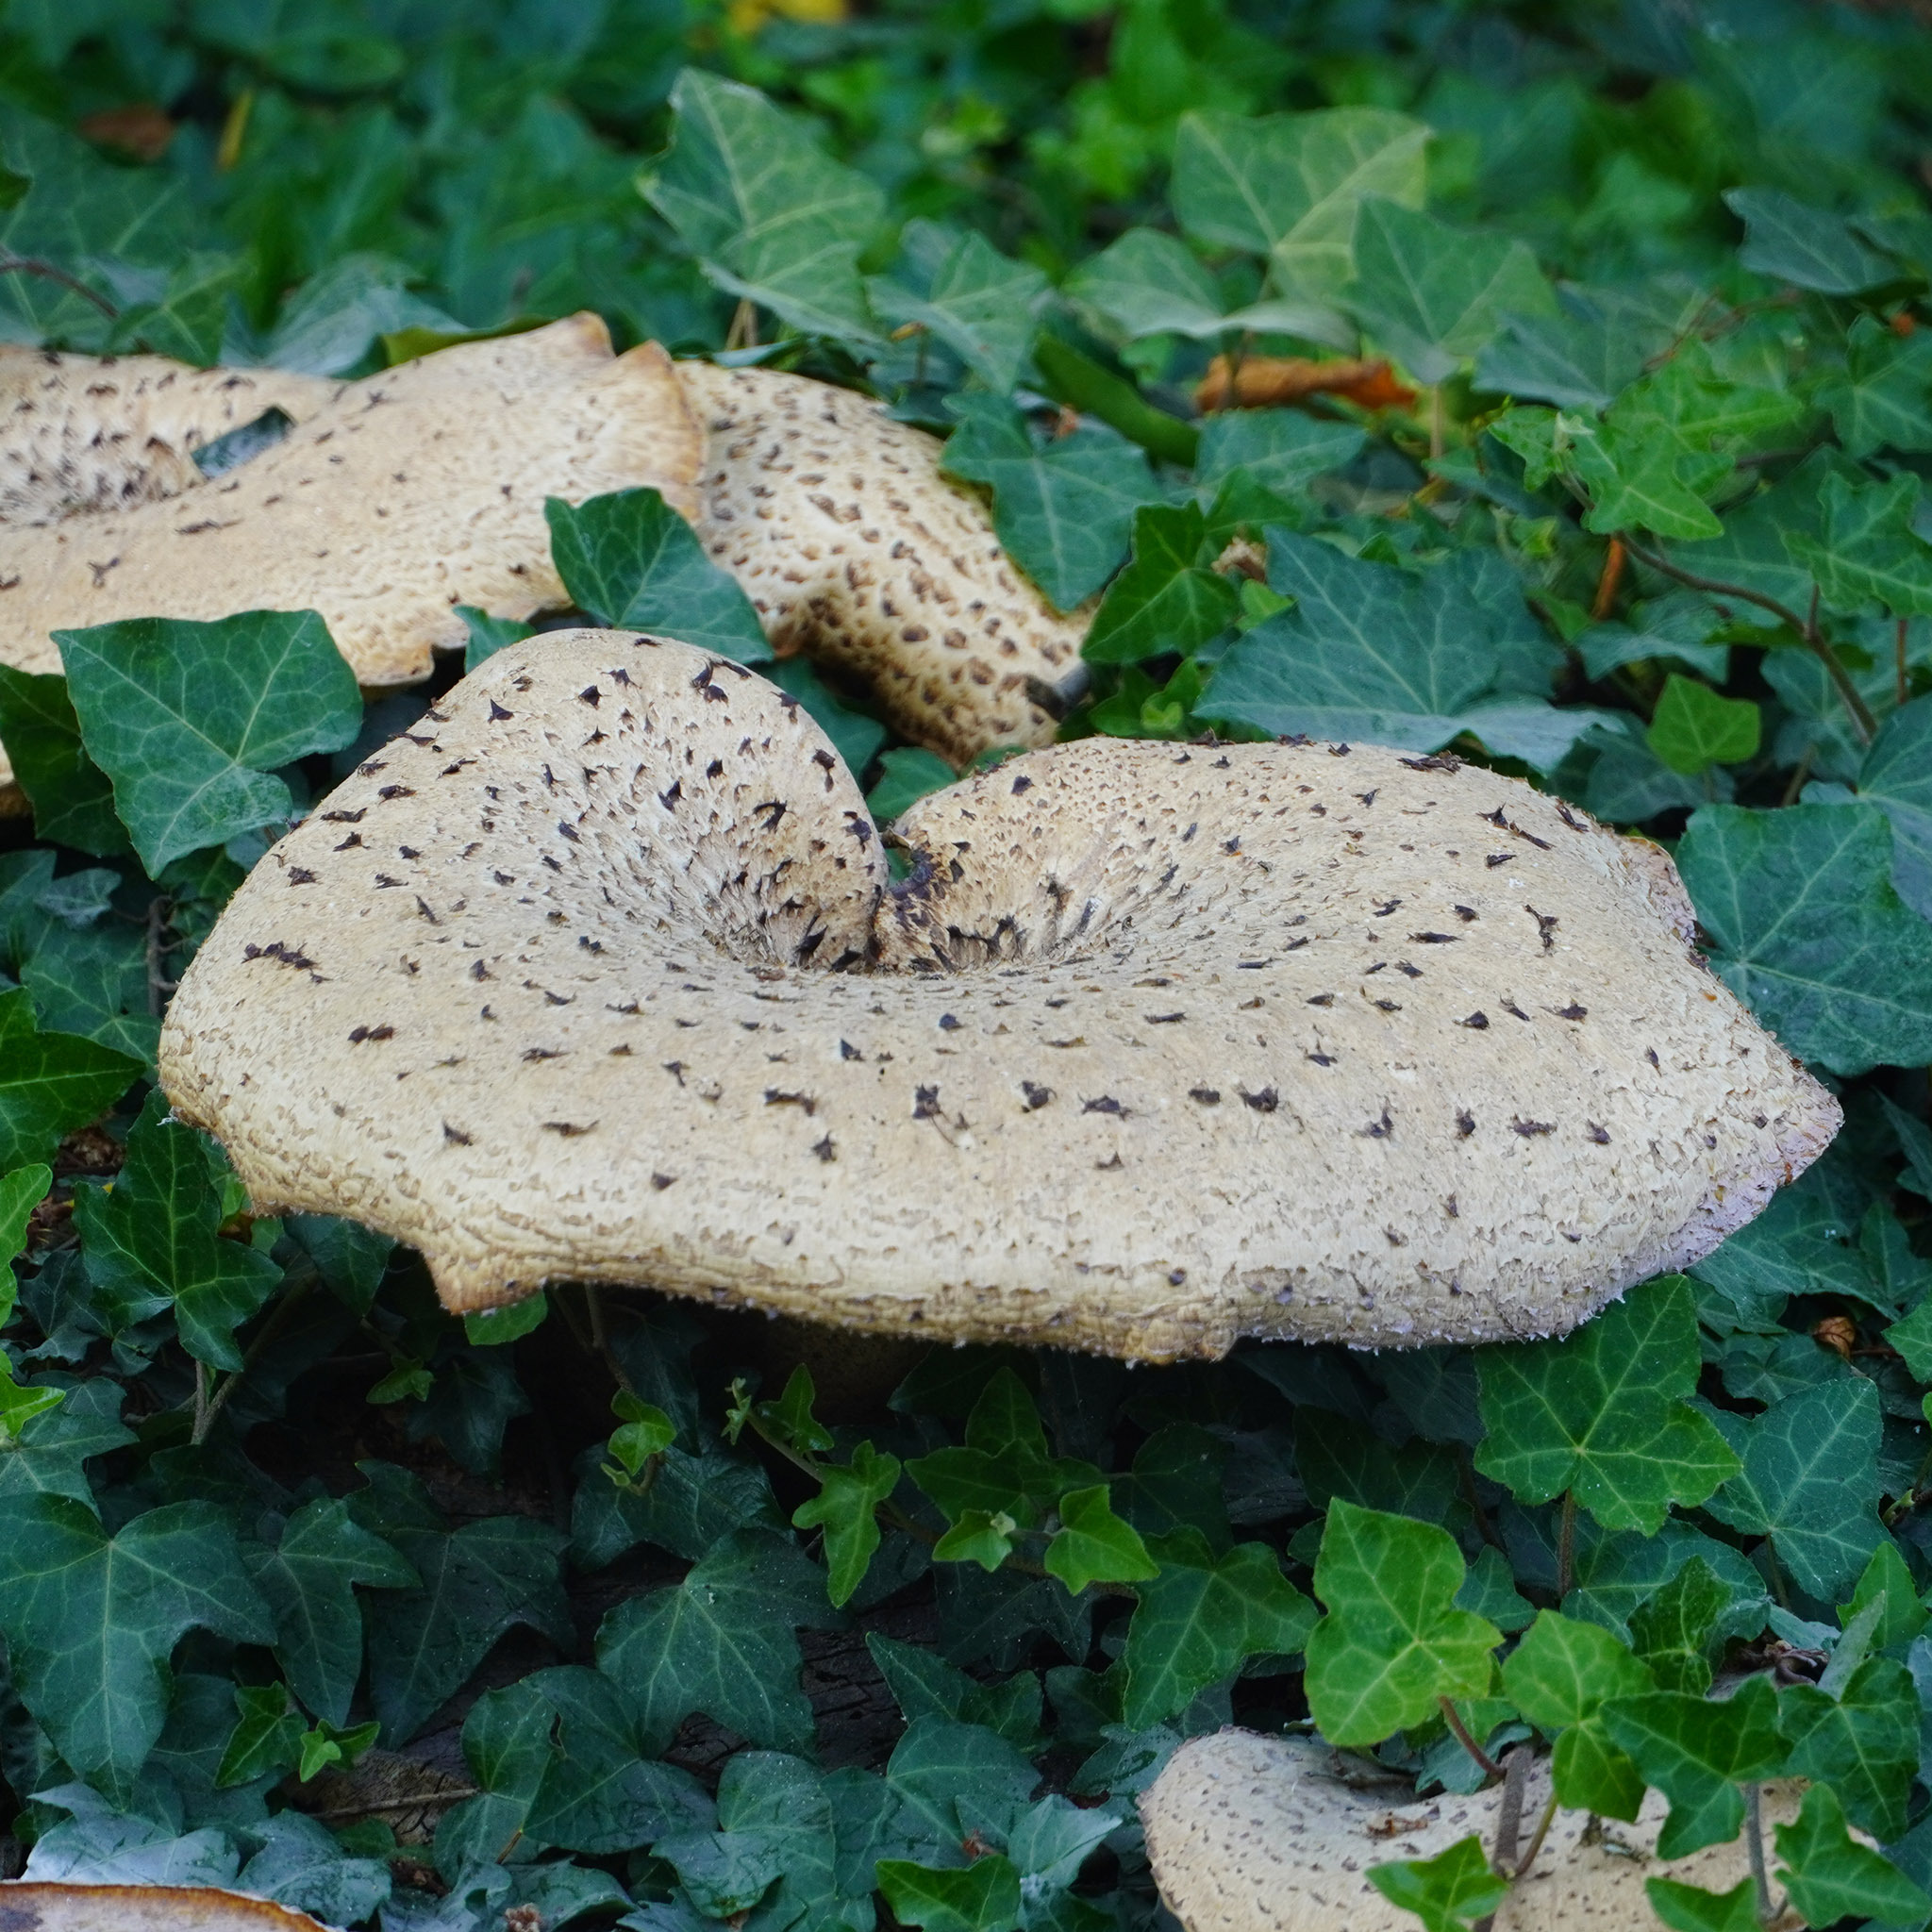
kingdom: Fungi
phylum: Basidiomycota
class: Agaricomycetes
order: Polyporales
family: Polyporaceae
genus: Cerioporus
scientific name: Cerioporus squamosus
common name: Dryad's saddle
